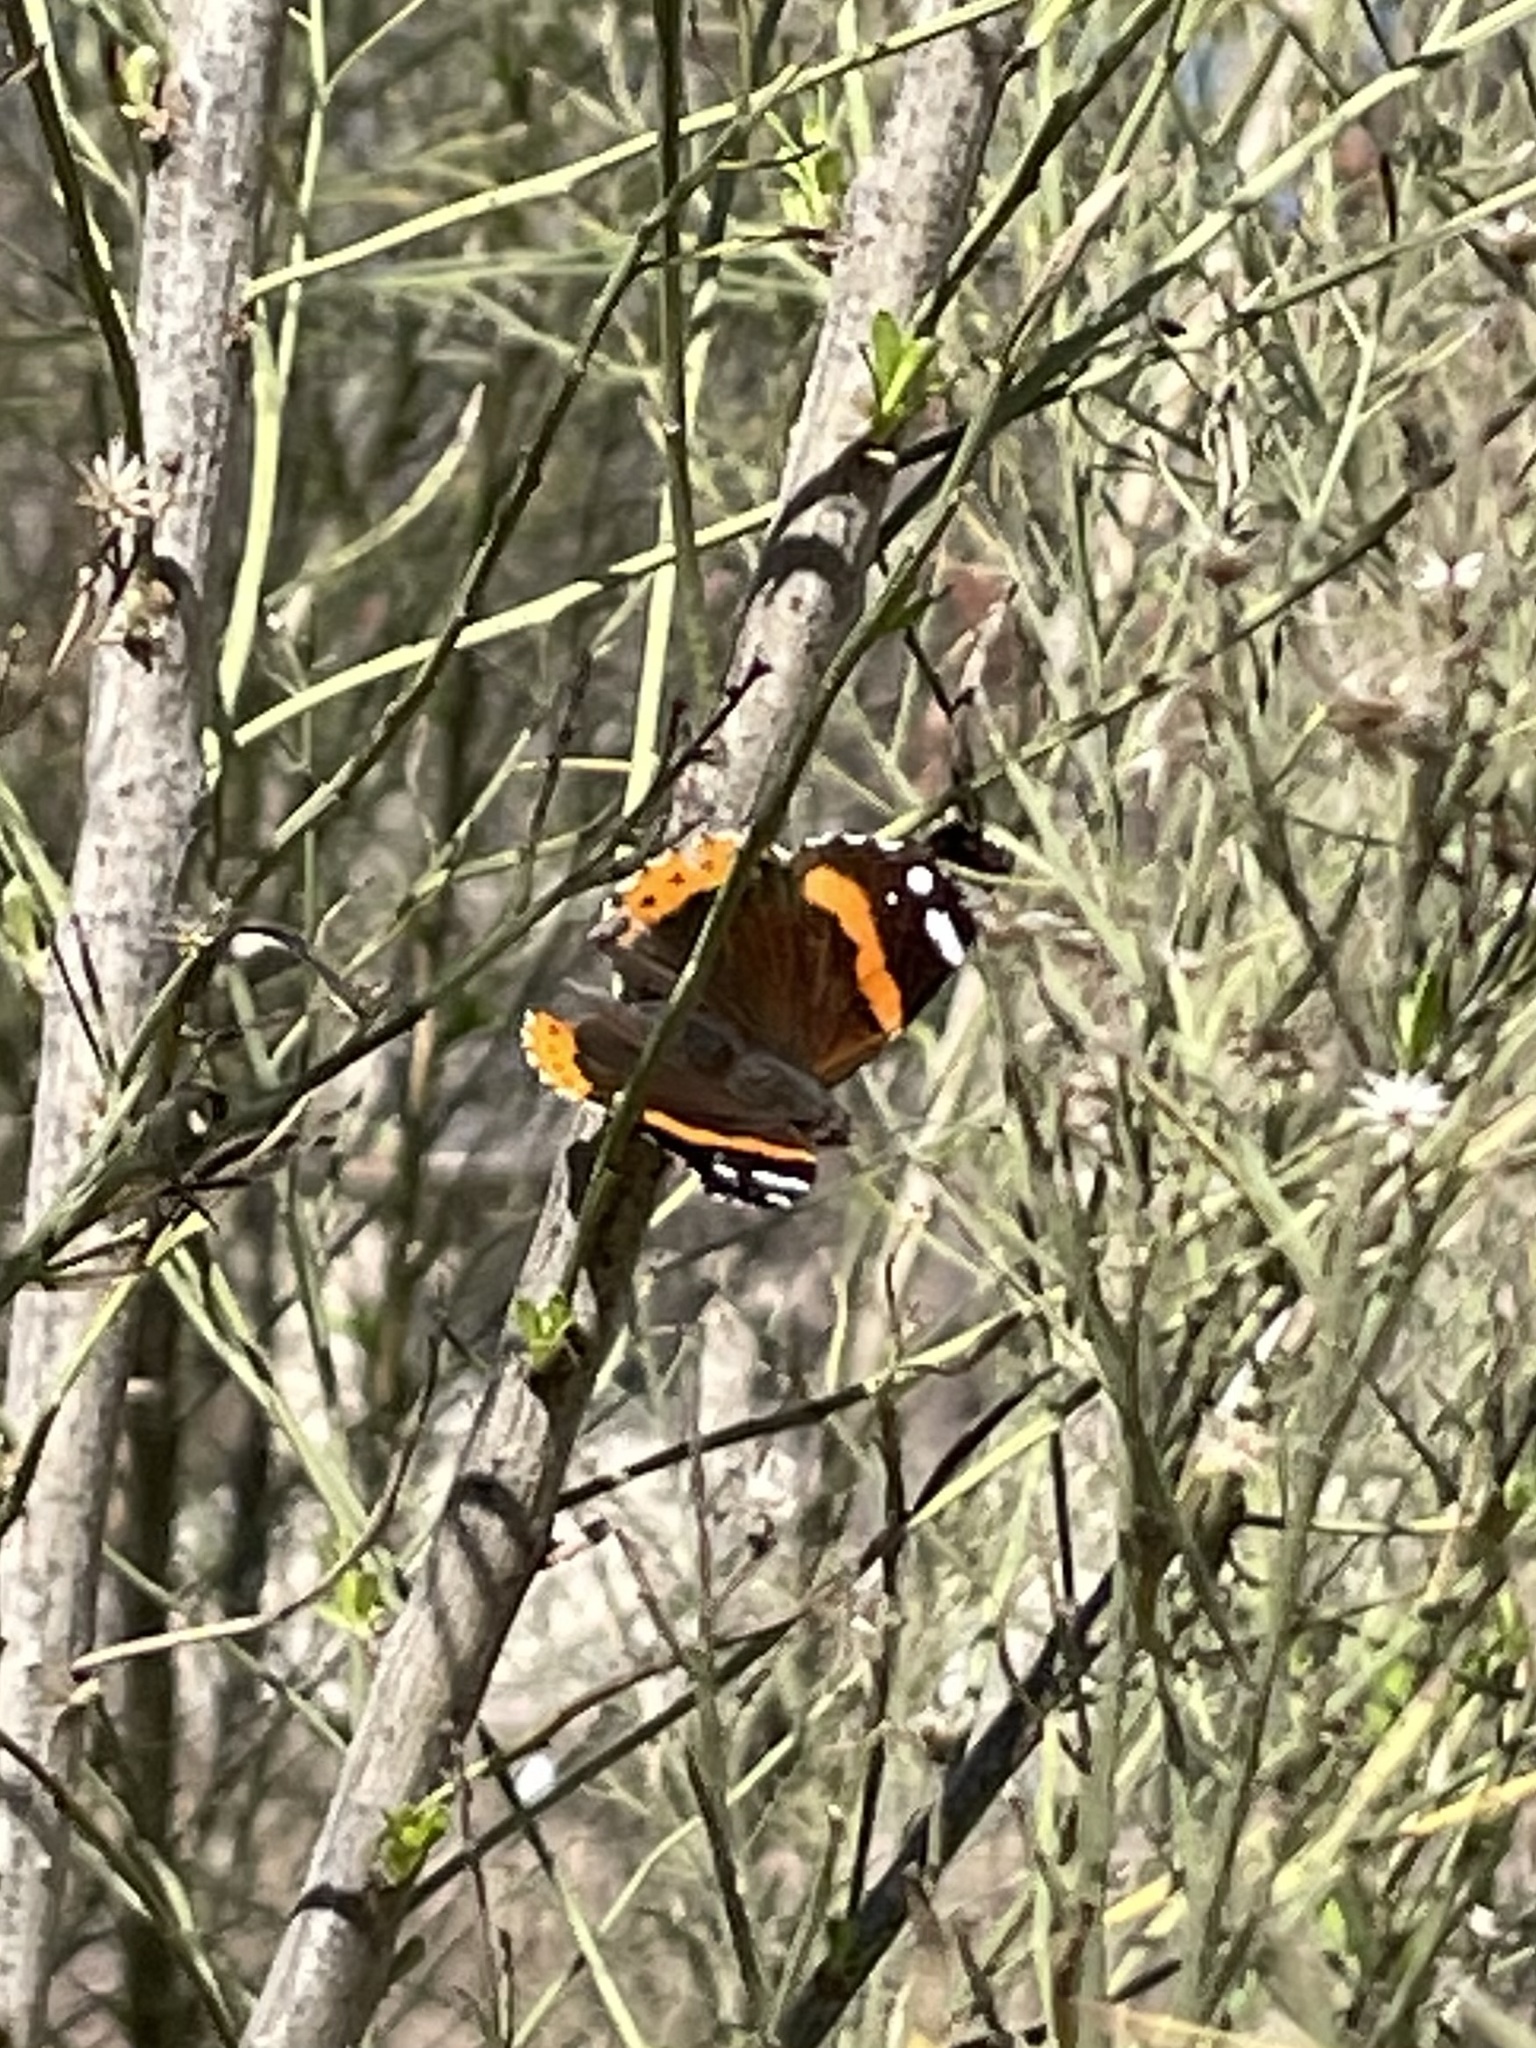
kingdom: Animalia
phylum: Arthropoda
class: Insecta
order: Lepidoptera
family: Nymphalidae
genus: Vanessa
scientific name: Vanessa atalanta
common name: Red admiral
